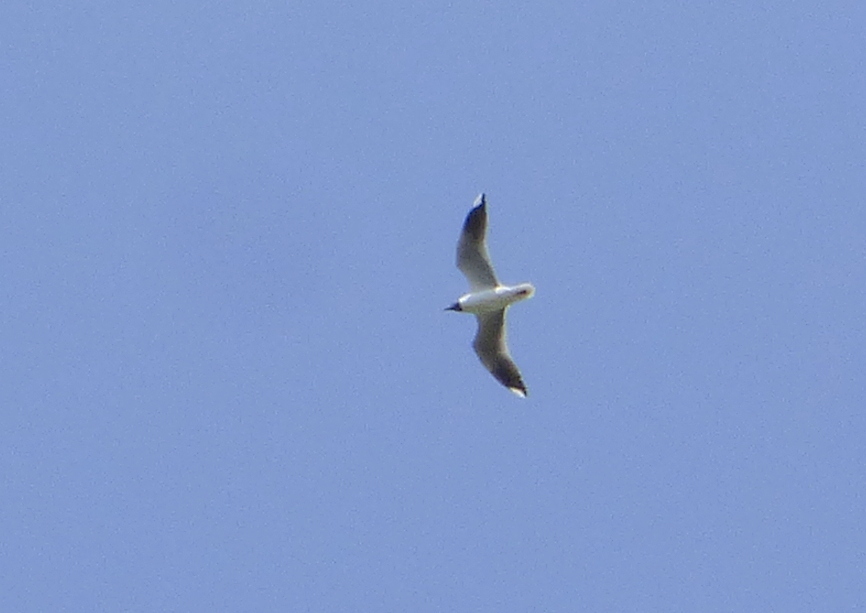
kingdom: Animalia
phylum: Chordata
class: Aves
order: Charadriiformes
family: Laridae
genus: Chroicocephalus
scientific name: Chroicocephalus maculipennis
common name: Brown-hooded gull
